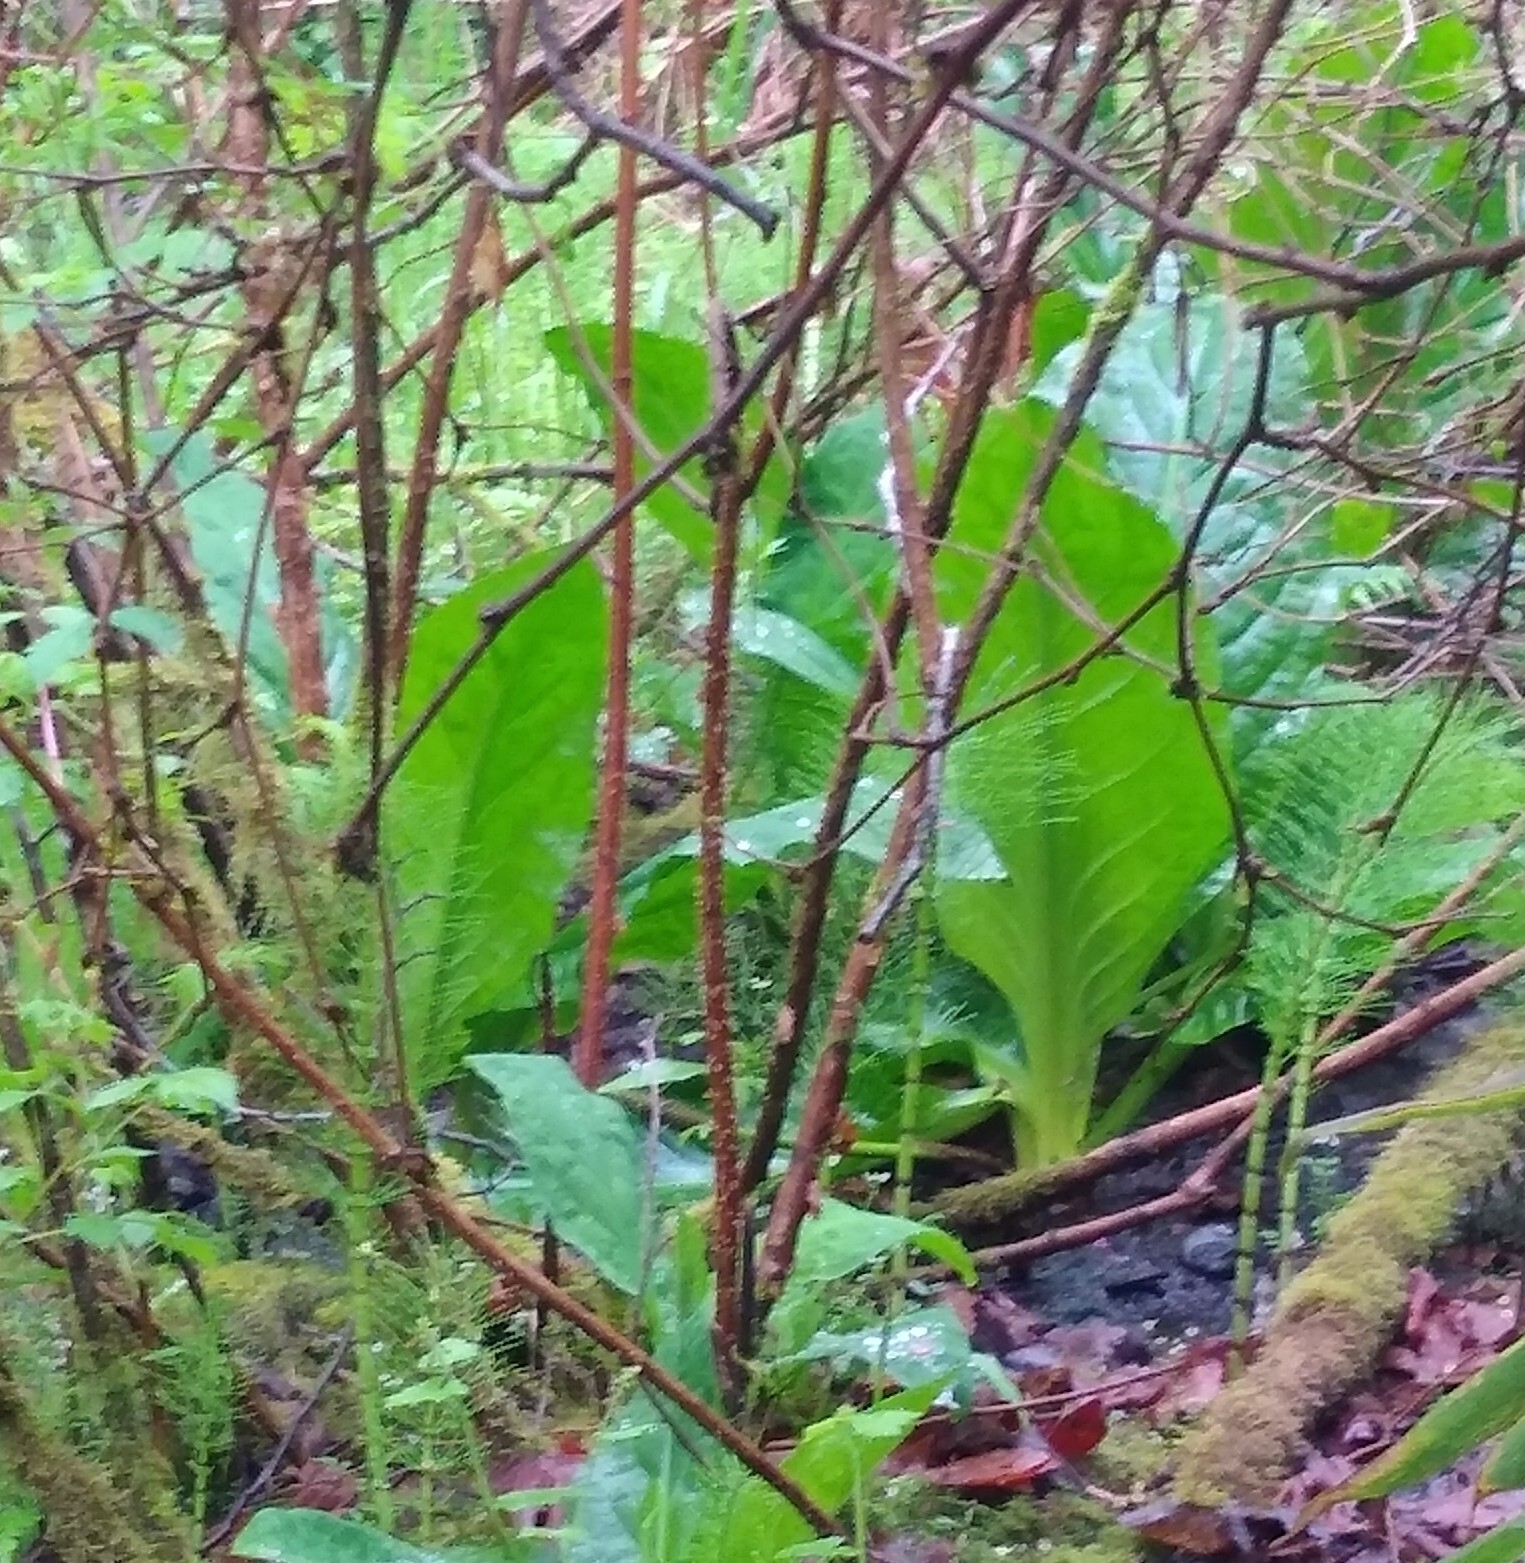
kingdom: Plantae
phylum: Tracheophyta
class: Liliopsida
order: Alismatales
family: Araceae
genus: Lysichiton
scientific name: Lysichiton americanus
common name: American skunk cabbage
